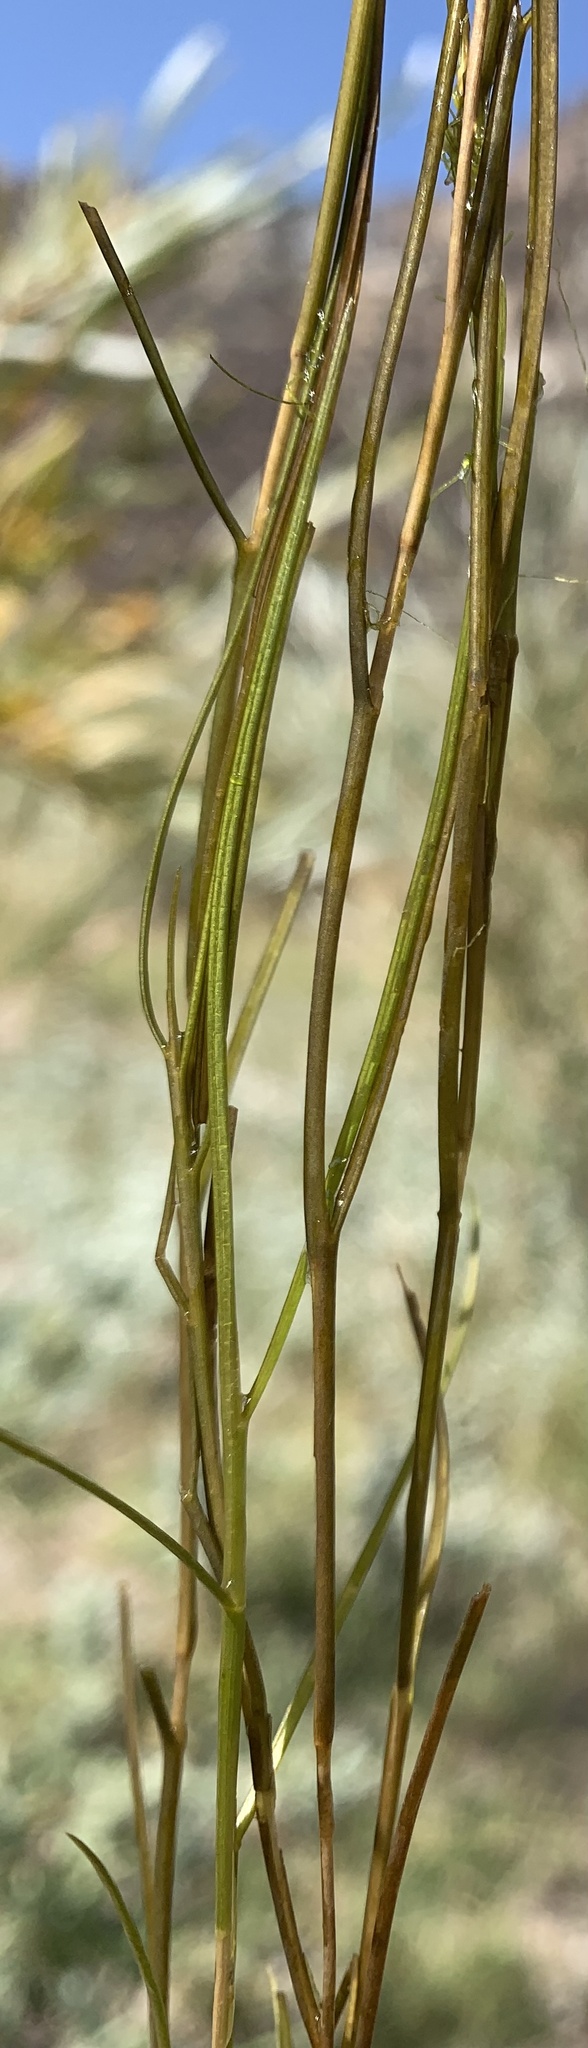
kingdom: Plantae
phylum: Tracheophyta
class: Liliopsida
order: Alismatales
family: Potamogetonaceae
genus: Stuckenia
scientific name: Stuckenia pectinata
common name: Sago pondweed
